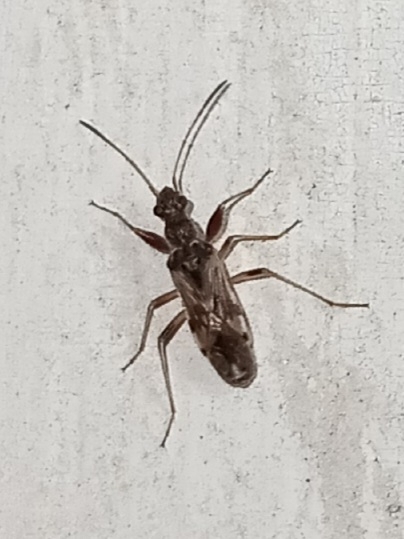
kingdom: Animalia
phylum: Arthropoda
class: Insecta
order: Hemiptera
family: Rhyparochromidae
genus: Neopamera
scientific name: Neopamera bilobata
